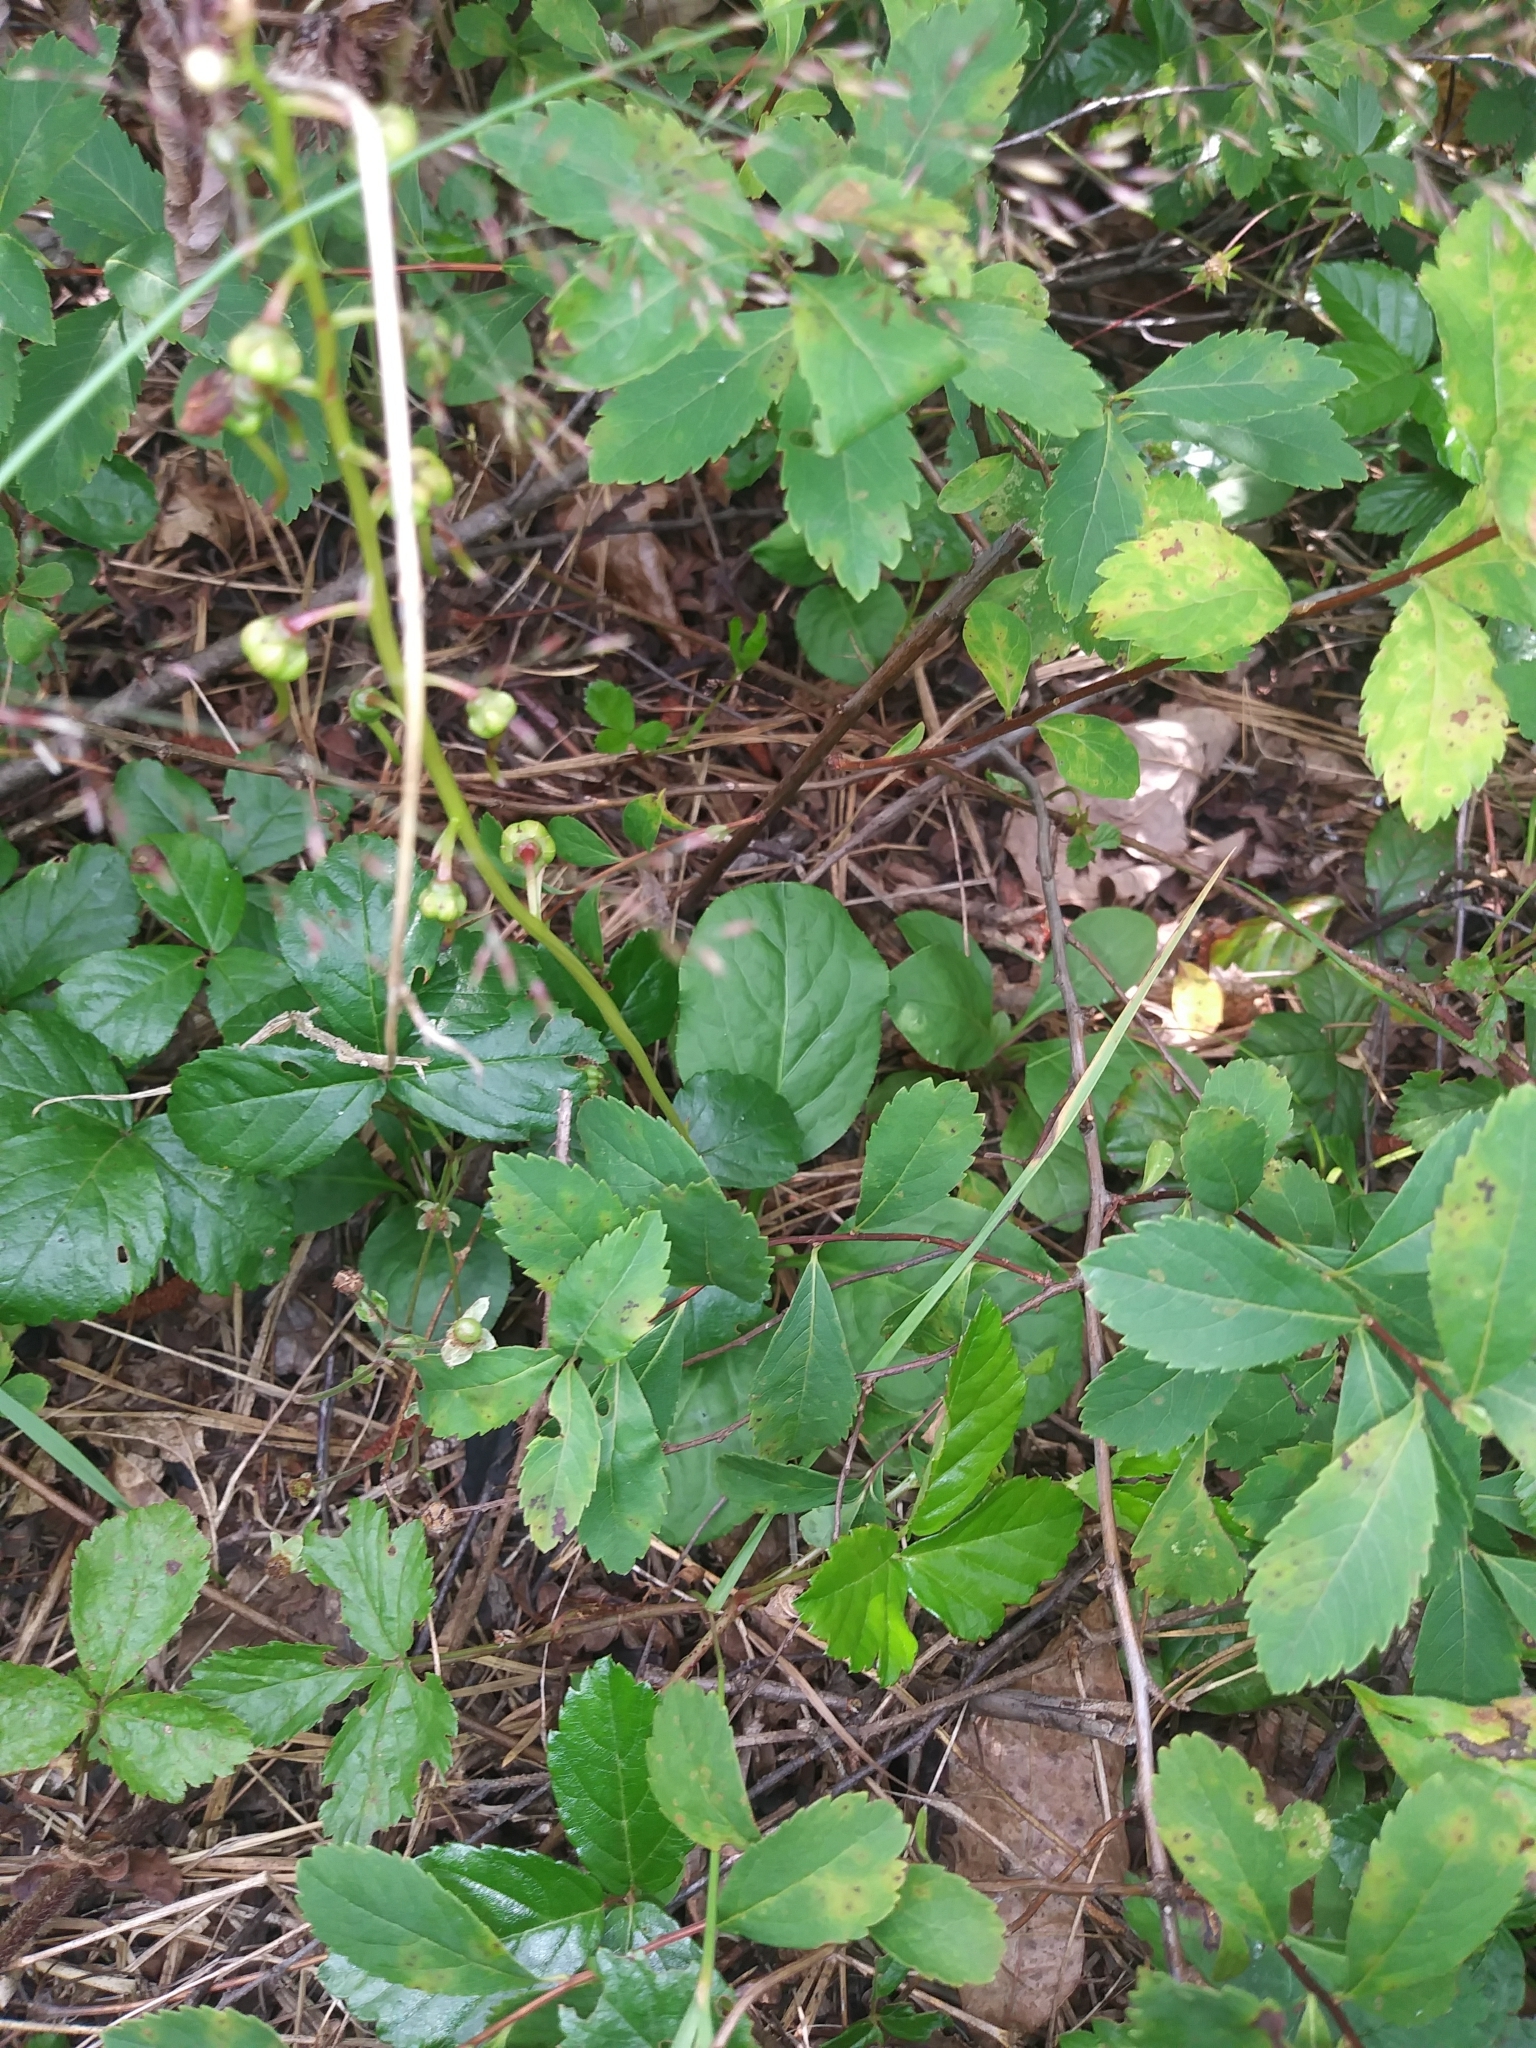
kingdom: Plantae
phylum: Tracheophyta
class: Magnoliopsida
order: Ericales
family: Ericaceae
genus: Pyrola
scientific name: Pyrola elliptica
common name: Shinleaf
